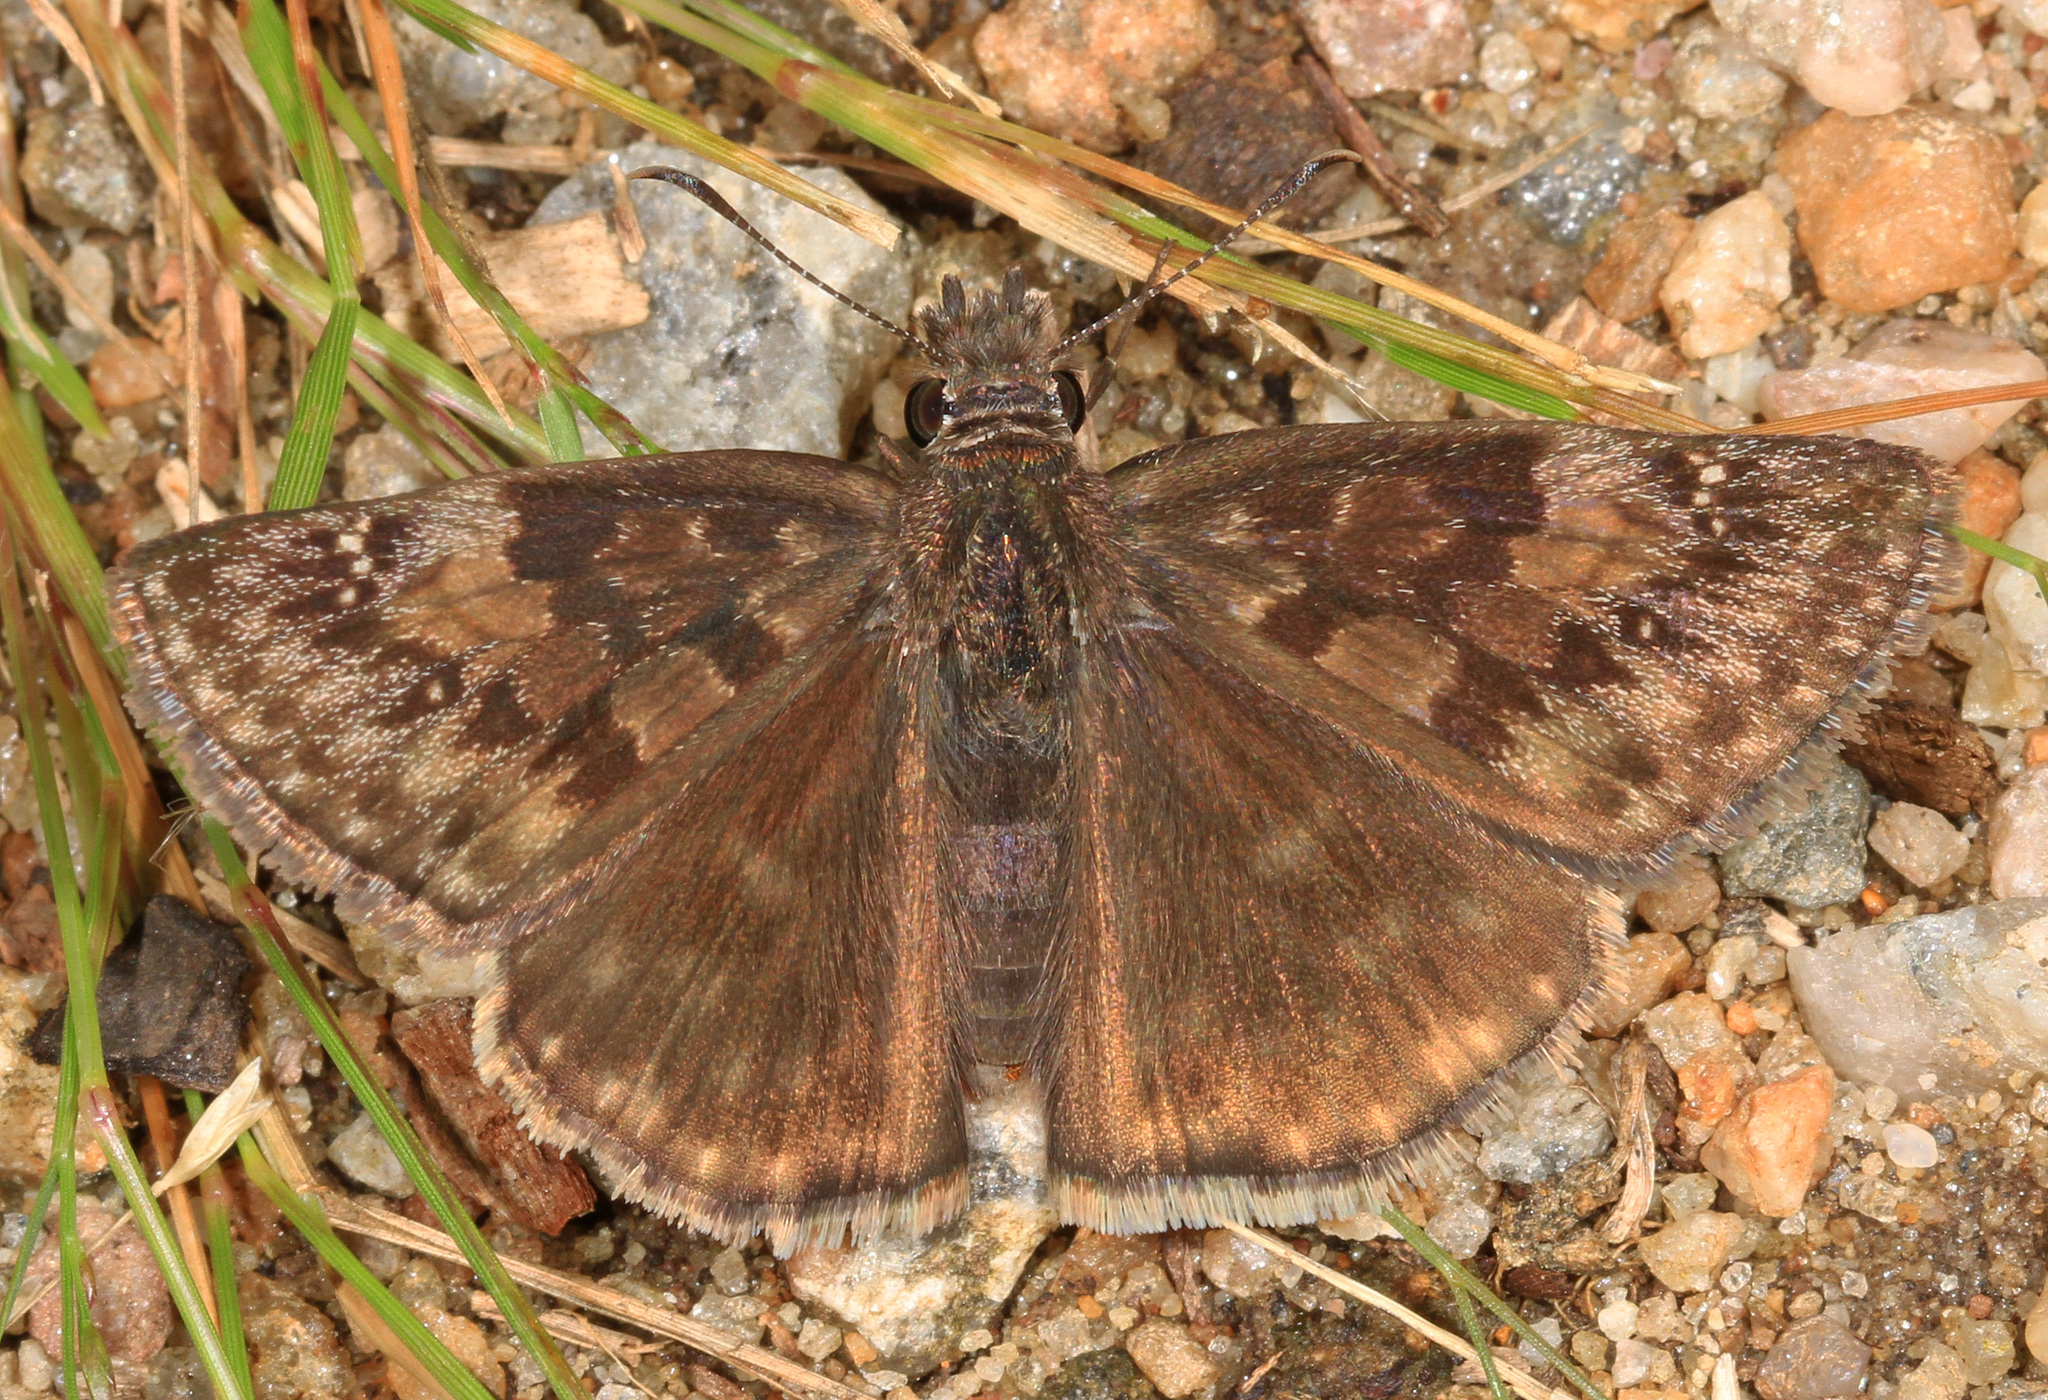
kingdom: Animalia
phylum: Arthropoda
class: Insecta
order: Lepidoptera
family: Hesperiidae
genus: Erynnis
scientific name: Erynnis baptisiae
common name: Wild indigo duskywing
